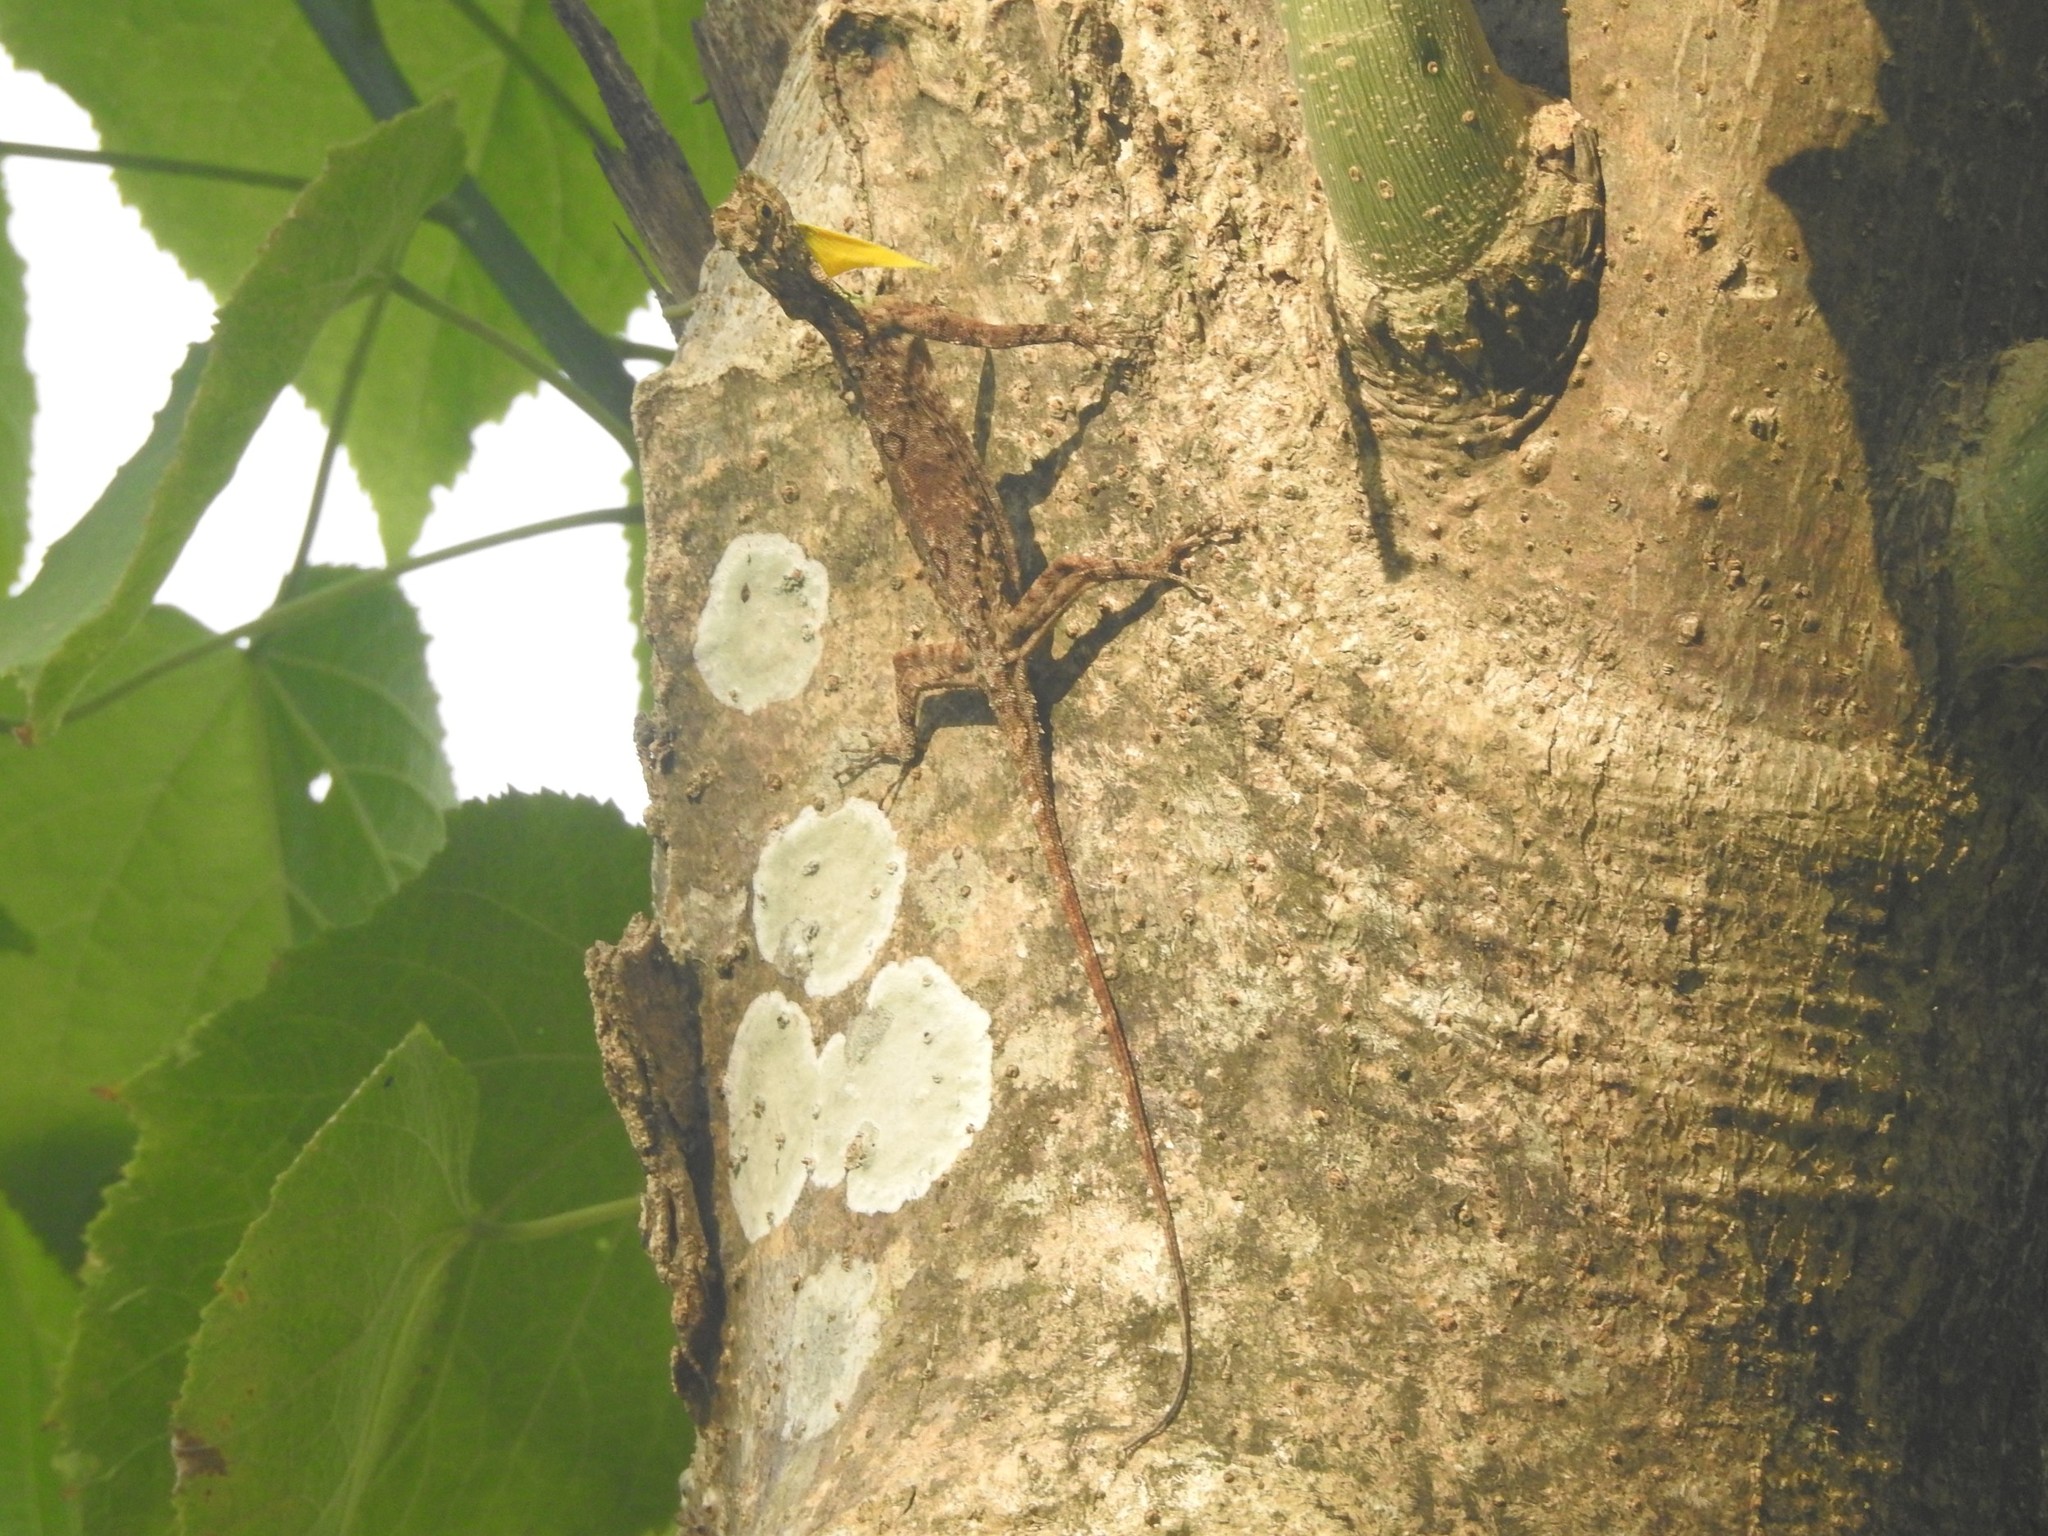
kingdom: Animalia
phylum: Chordata
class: Squamata
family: Agamidae
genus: Draco
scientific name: Draco dussumieri
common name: Southern flying lizard
